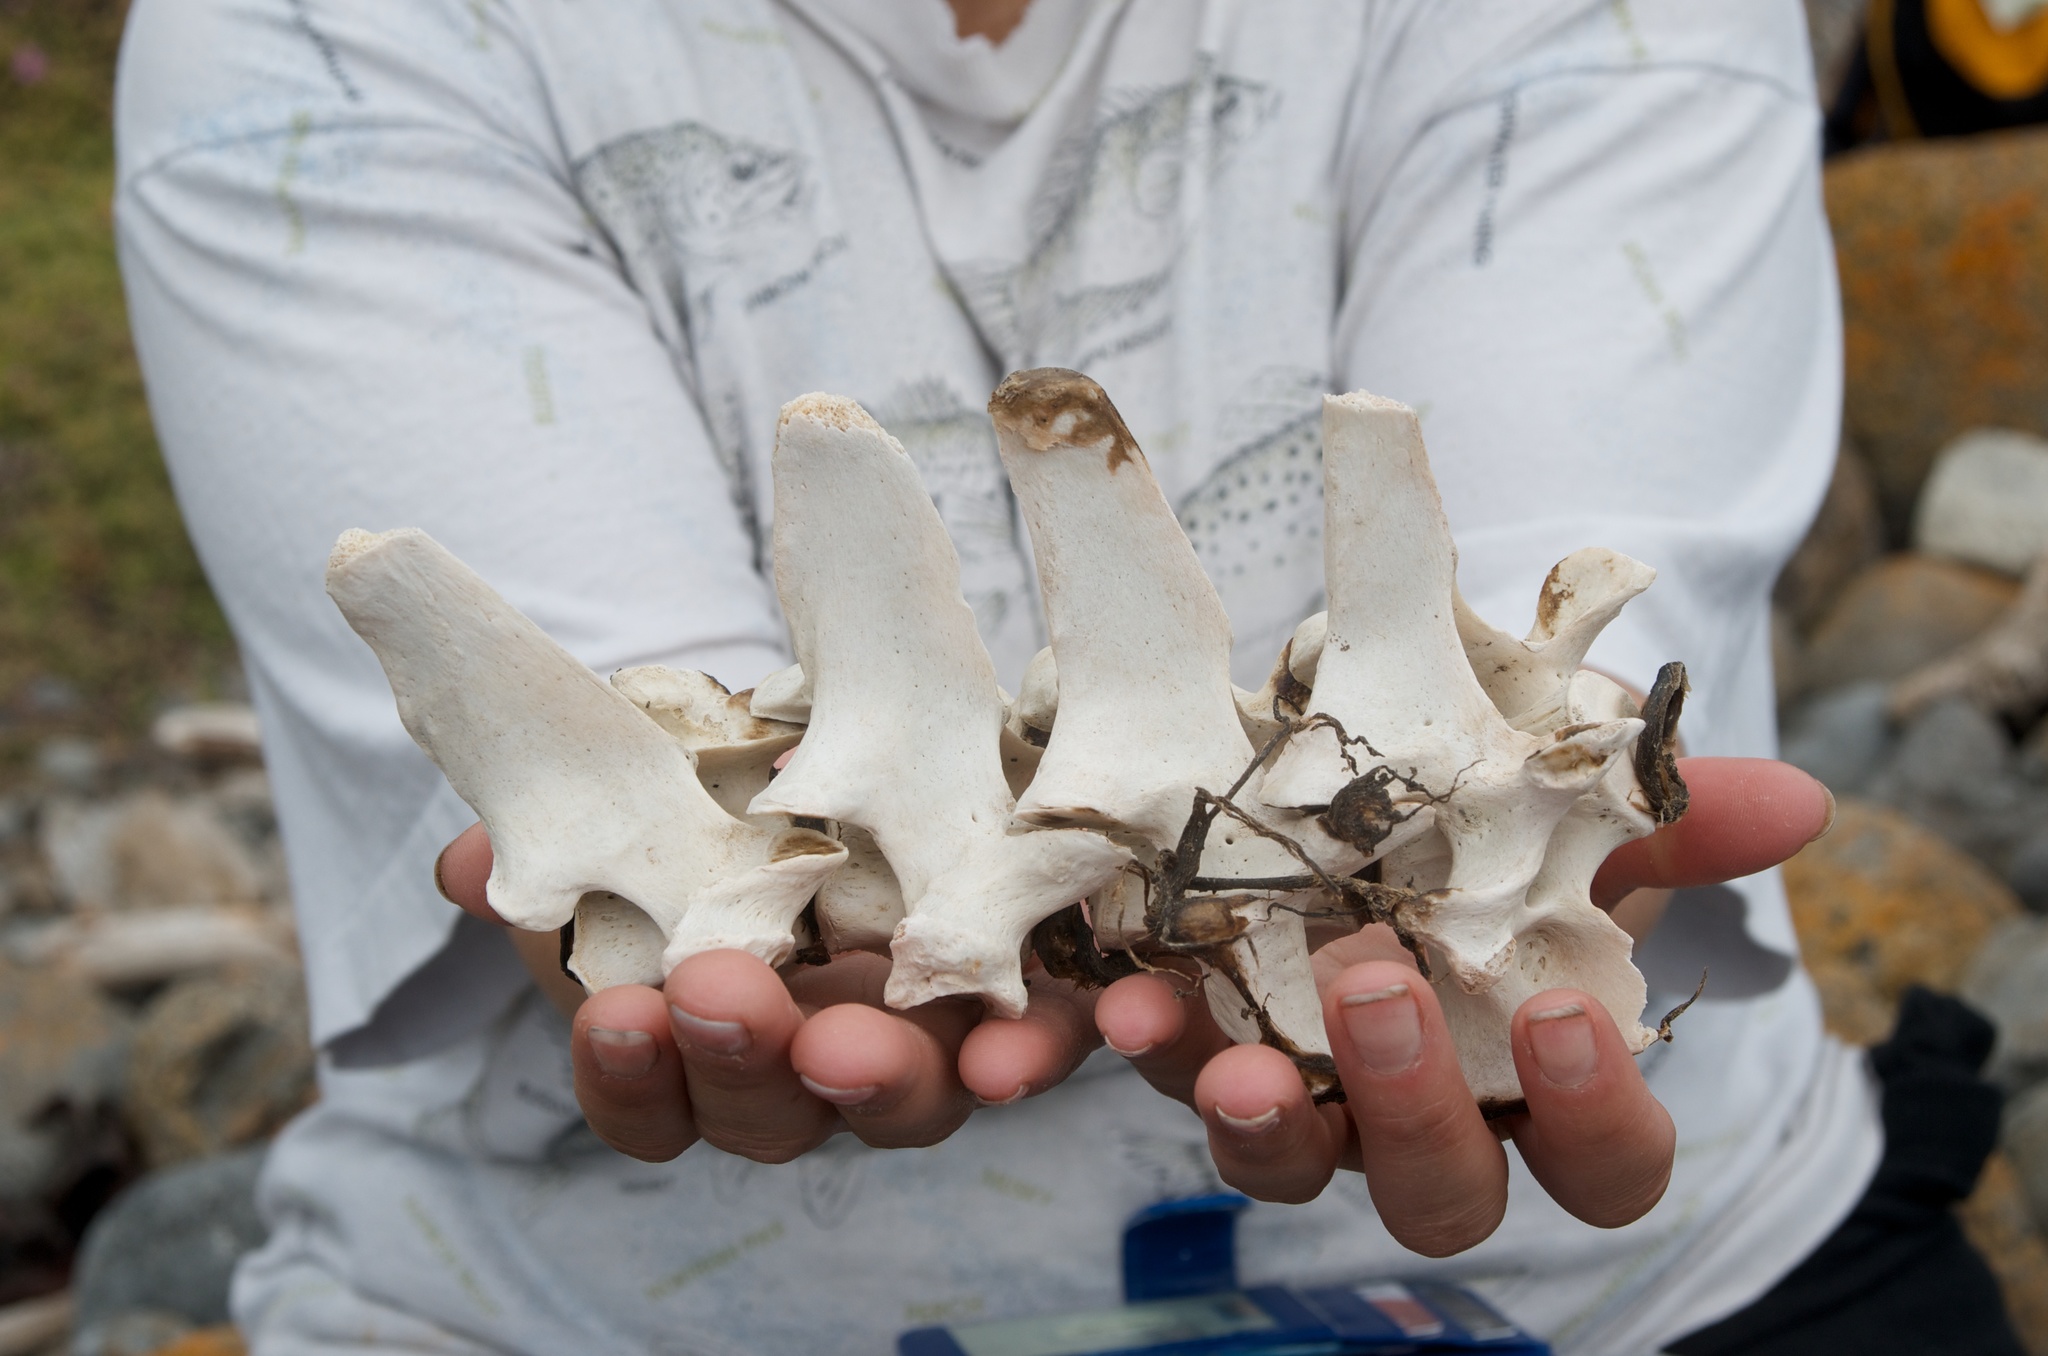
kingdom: Animalia
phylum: Chordata
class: Mammalia
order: Carnivora
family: Otariidae
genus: Arctocephalus
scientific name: Arctocephalus forsteri
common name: New zealand fur seal
